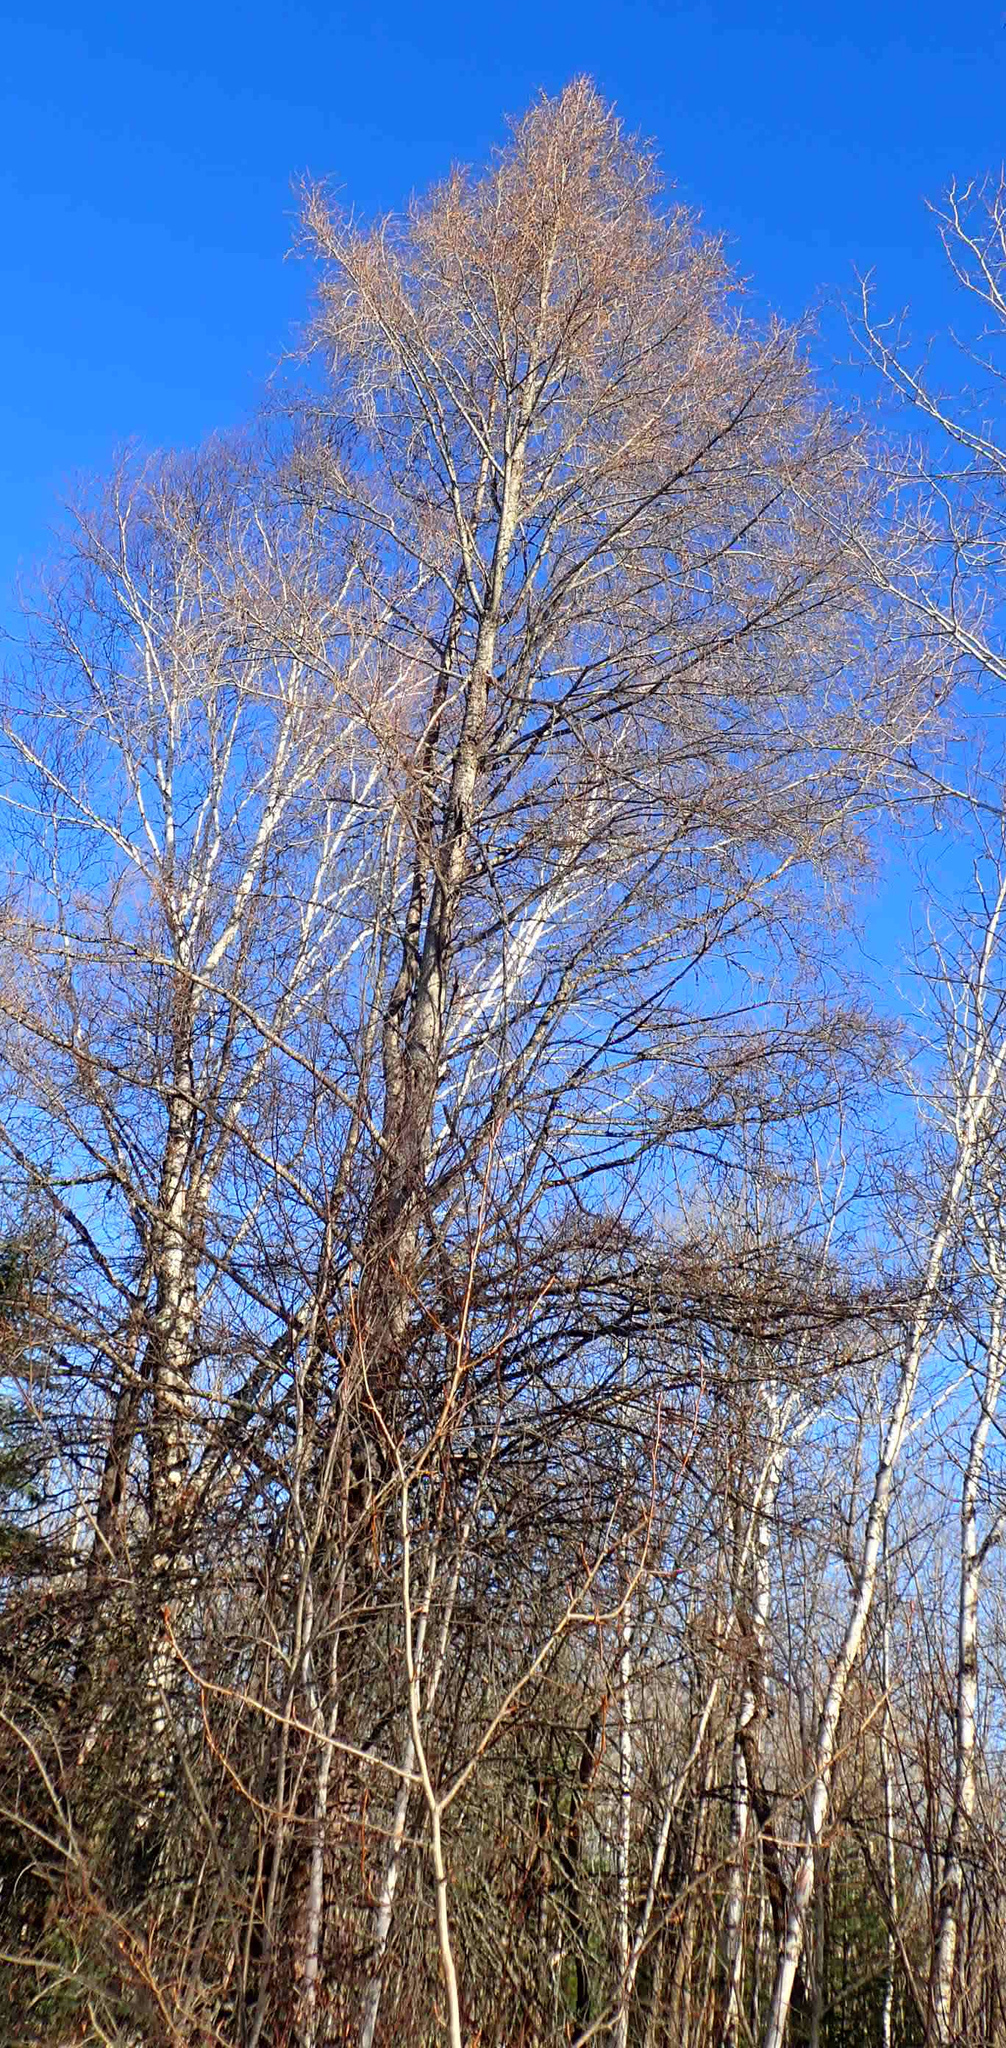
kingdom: Plantae
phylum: Tracheophyta
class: Magnoliopsida
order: Malpighiales
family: Salicaceae
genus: Populus
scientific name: Populus balsamifera
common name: Balsam poplar
